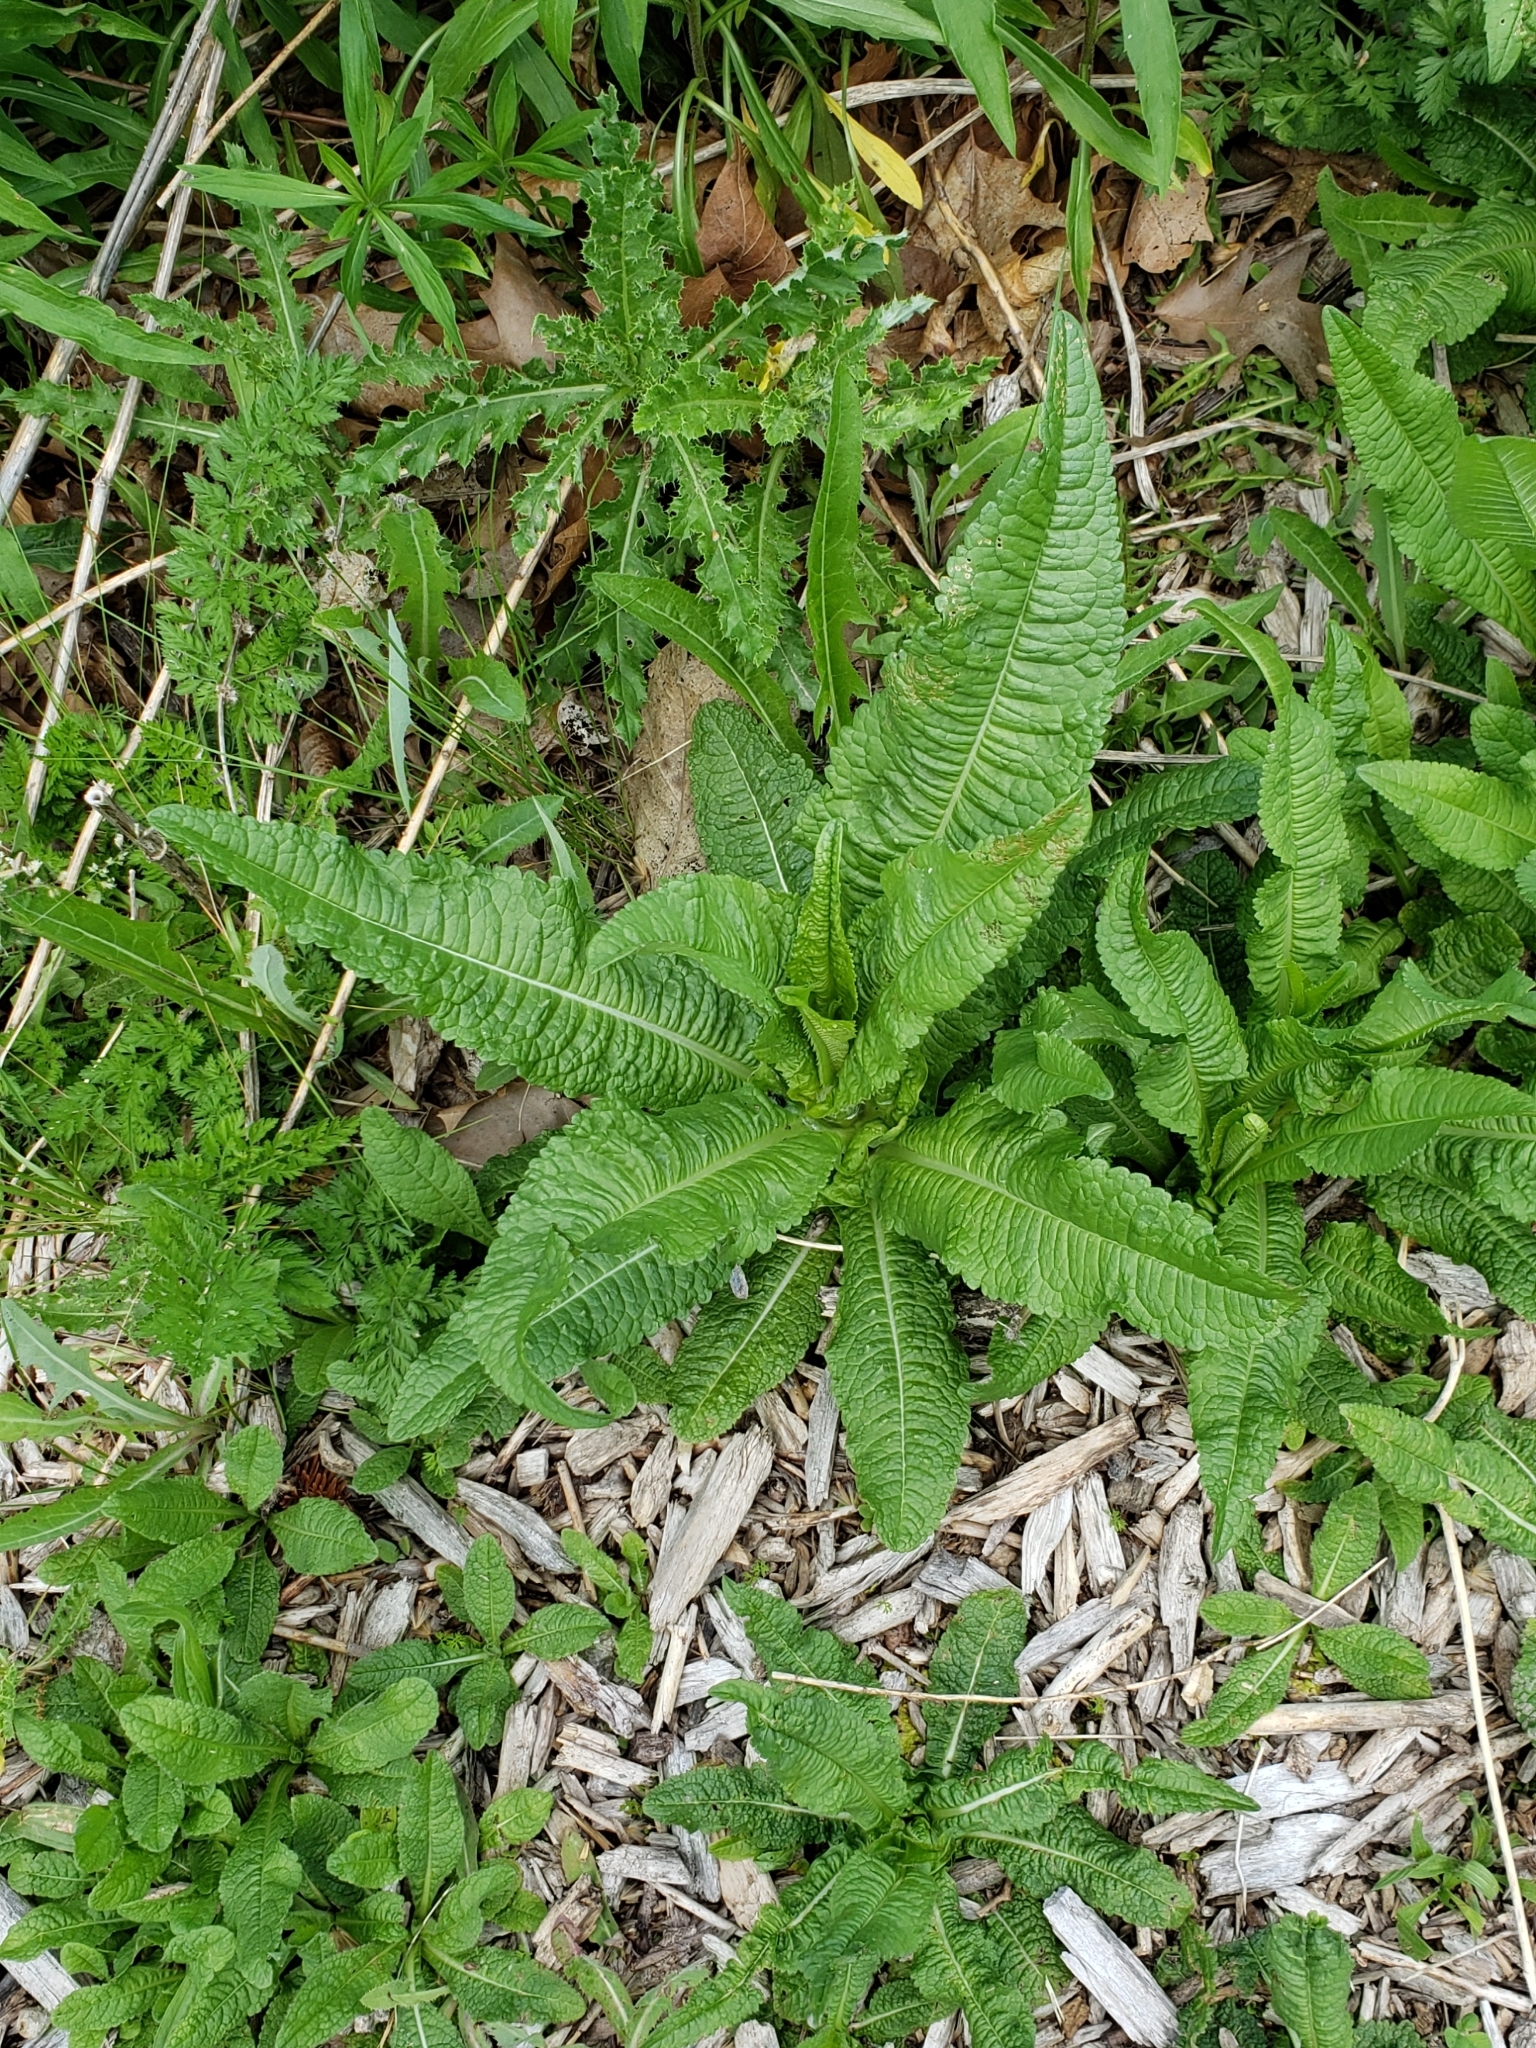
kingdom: Plantae
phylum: Tracheophyta
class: Magnoliopsida
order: Dipsacales
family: Caprifoliaceae
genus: Dipsacus
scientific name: Dipsacus fullonum
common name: Teasel
